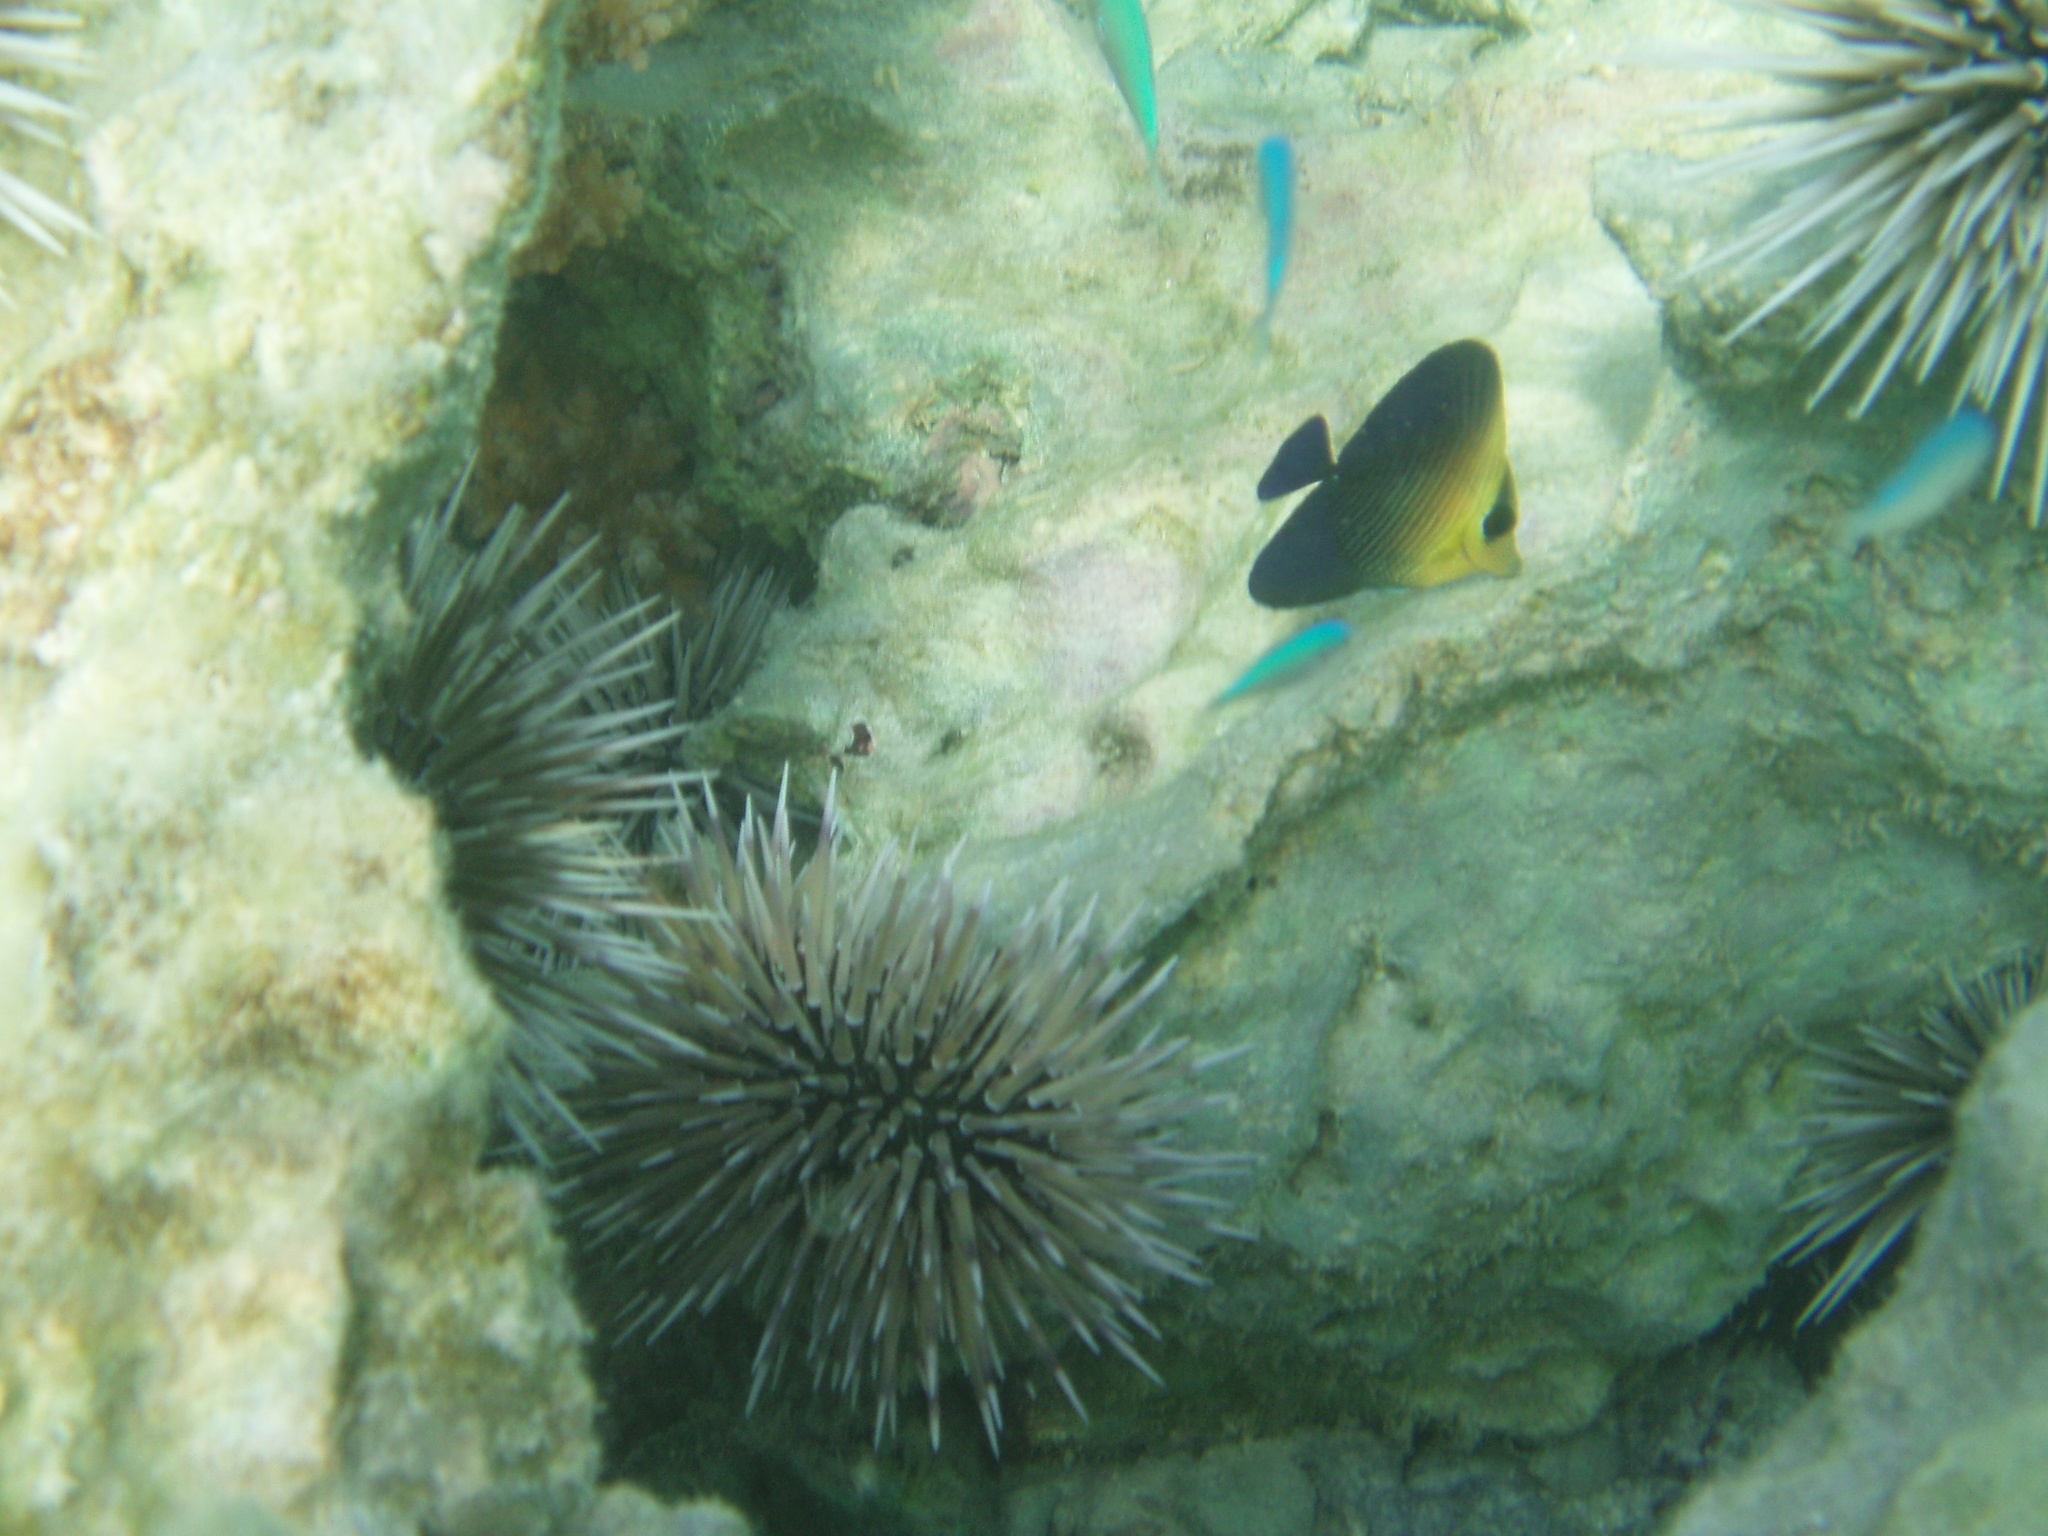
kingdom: Animalia
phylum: Chordata
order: Perciformes
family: Acanthuridae
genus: Zebrasoma
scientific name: Zebrasoma scopas
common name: Twotone tang
